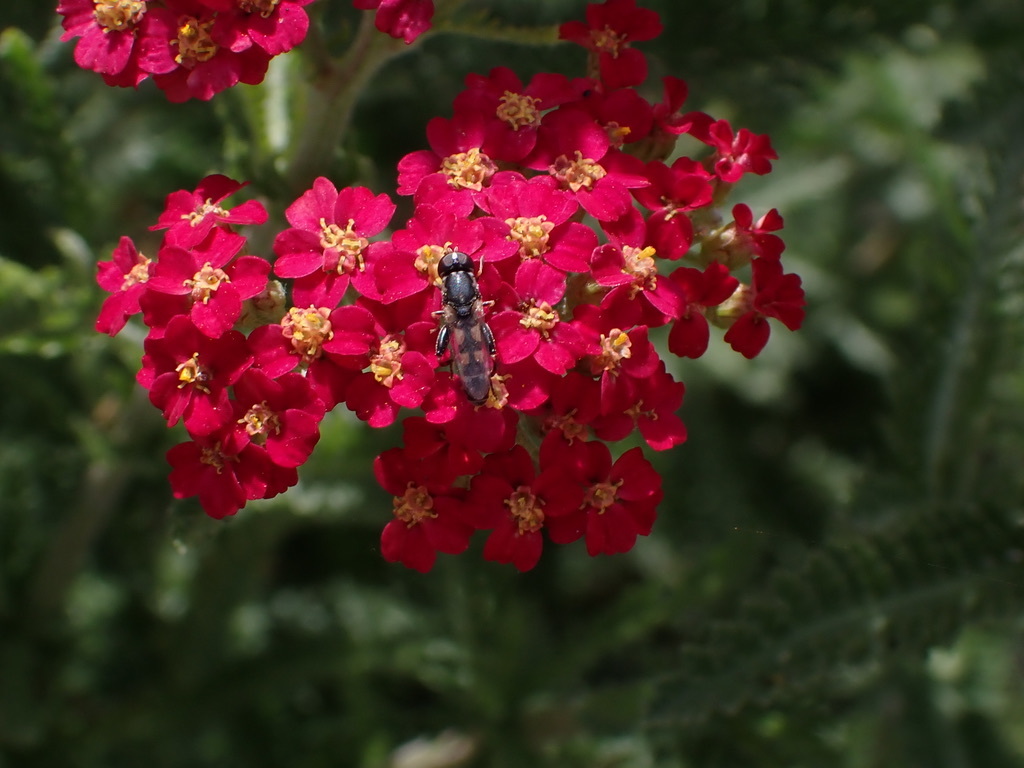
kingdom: Animalia
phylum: Arthropoda
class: Insecta
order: Diptera
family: Syrphidae
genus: Syritta
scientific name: Syritta pipiens
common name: Hover fly
